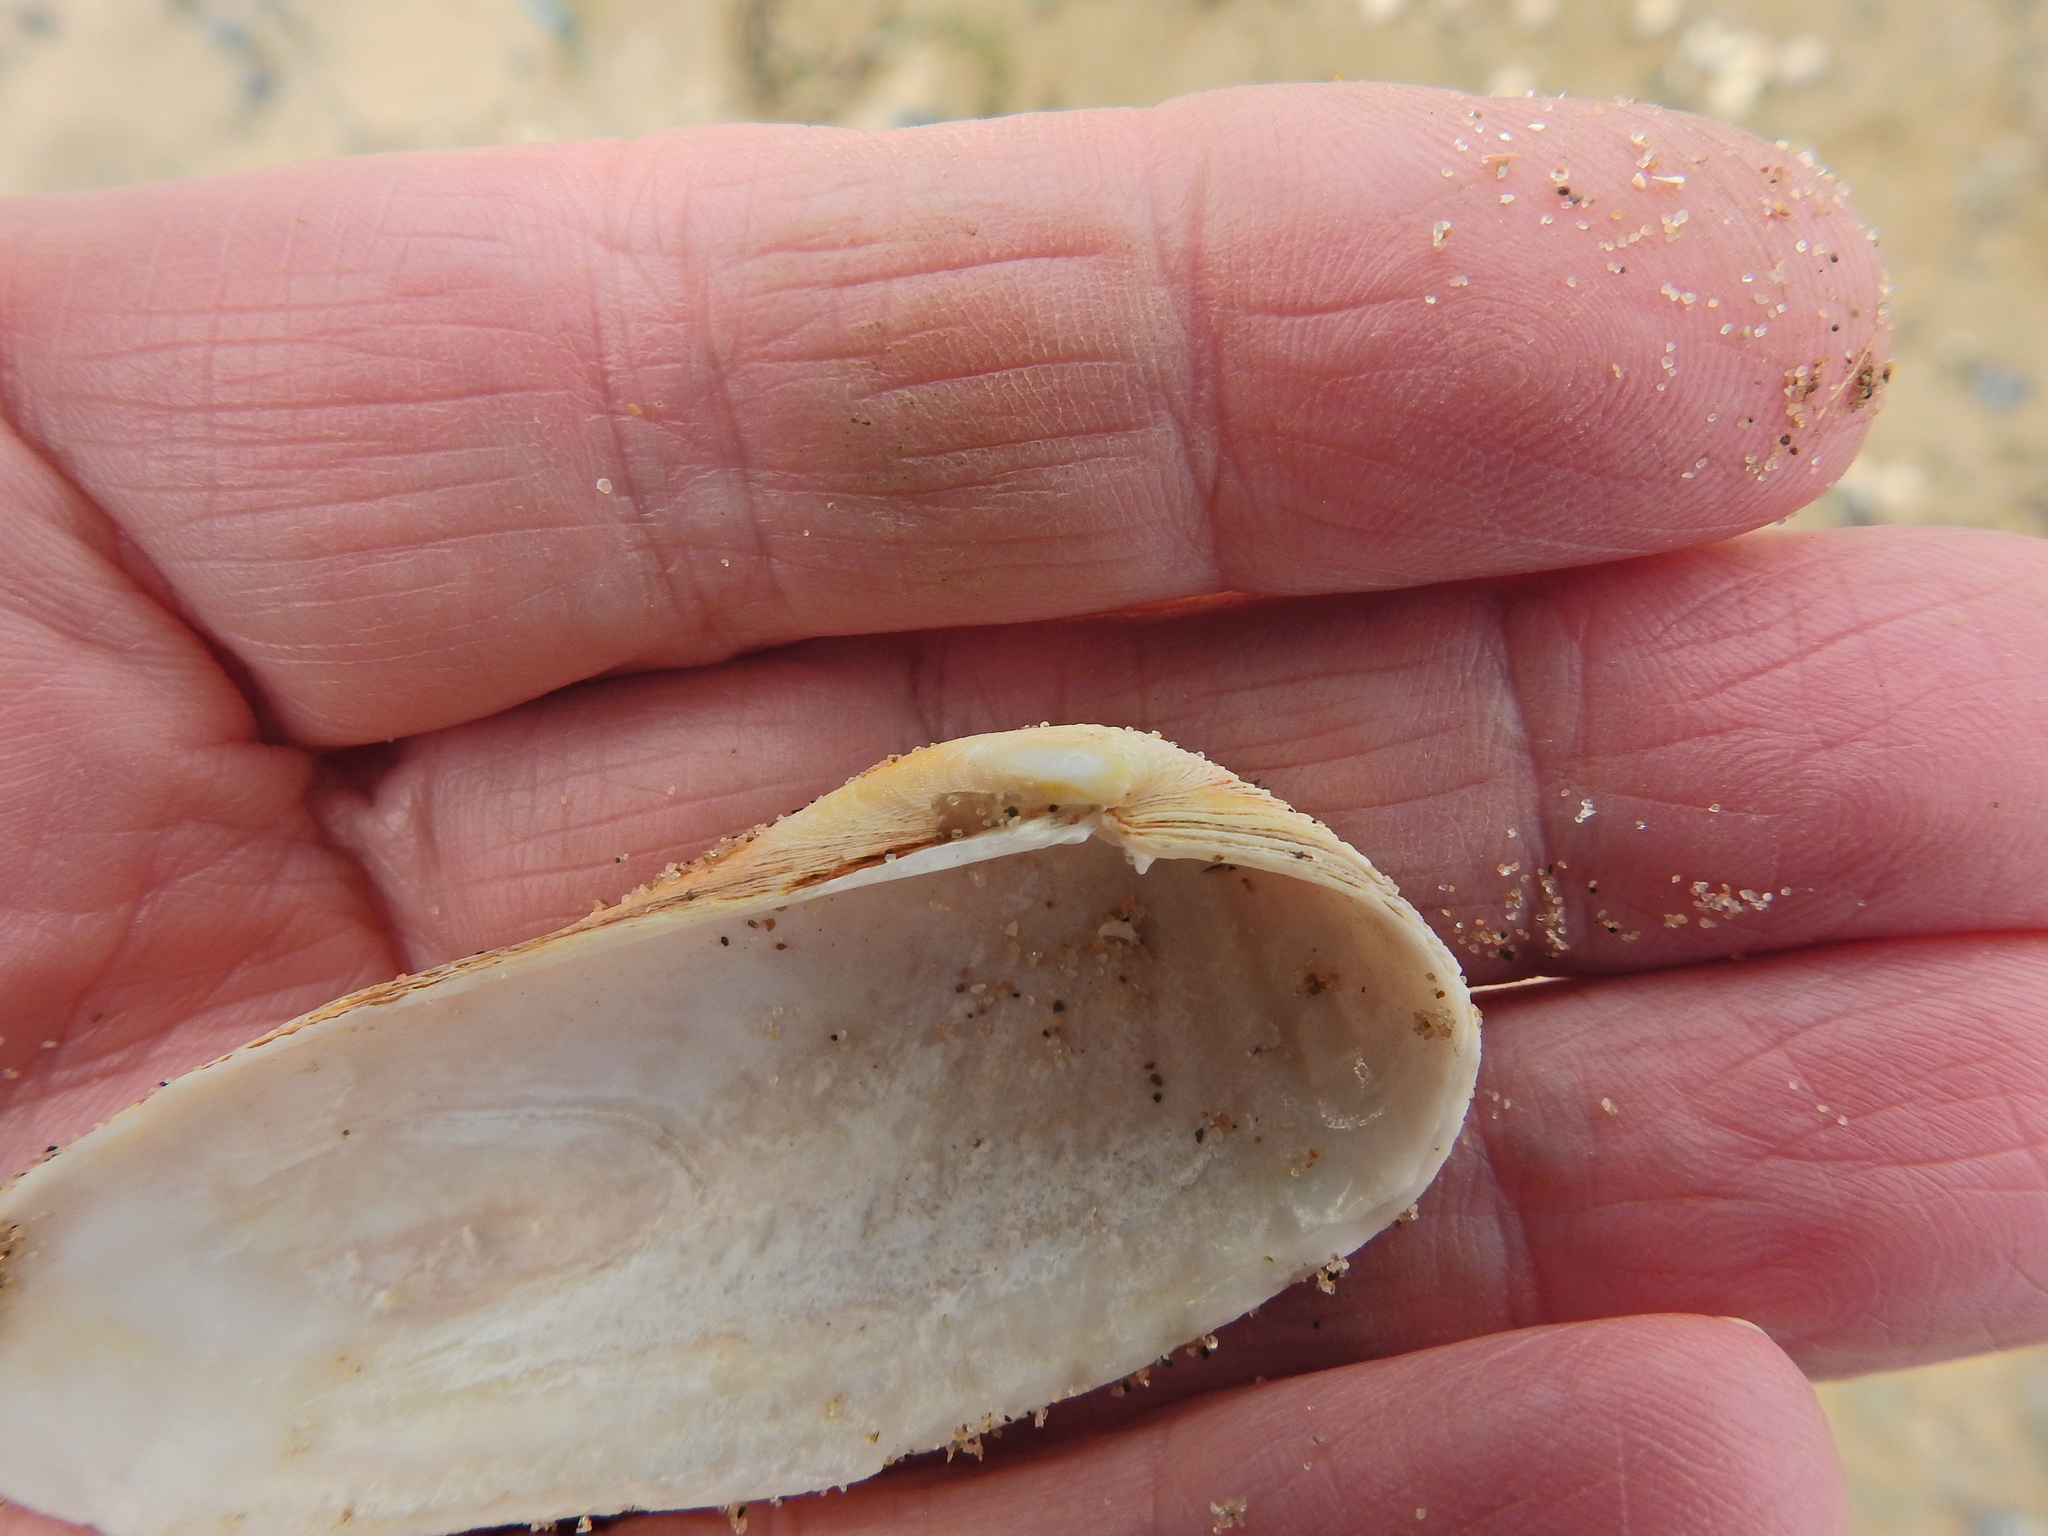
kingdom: Animalia
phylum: Mollusca
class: Bivalvia
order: Venerida
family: Veneridae
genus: Petricolaria
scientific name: Petricolaria pholadiformis
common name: American piddock
